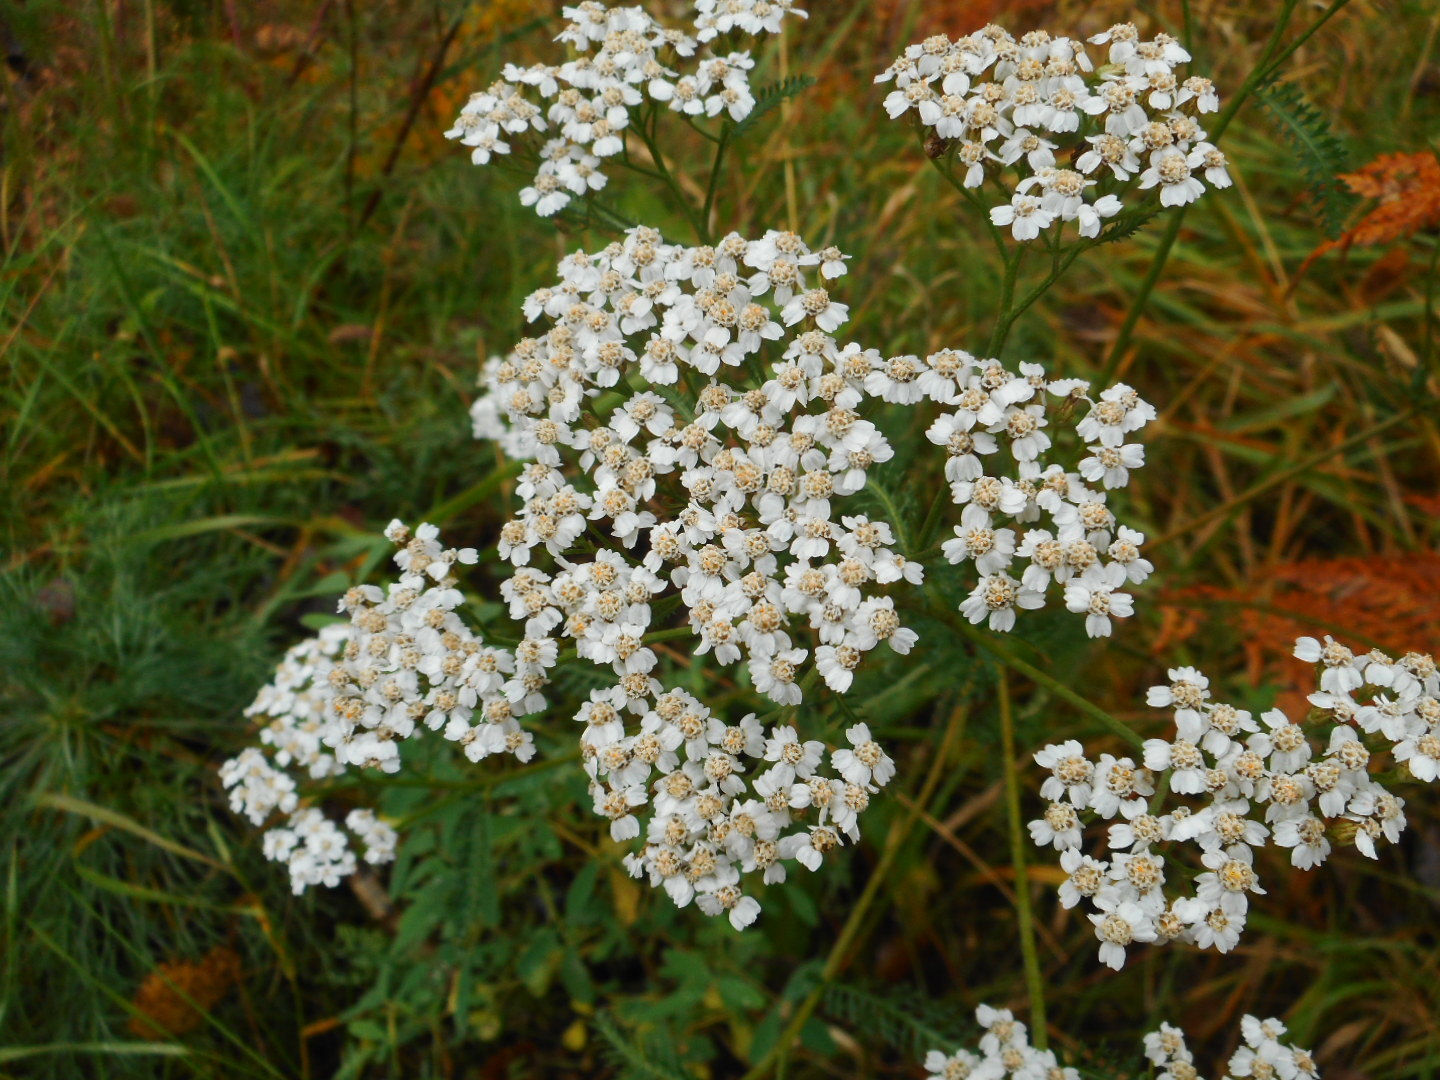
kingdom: Plantae
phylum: Tracheophyta
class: Magnoliopsida
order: Asterales
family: Asteraceae
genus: Achillea
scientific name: Achillea millefolium
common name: Yarrow
